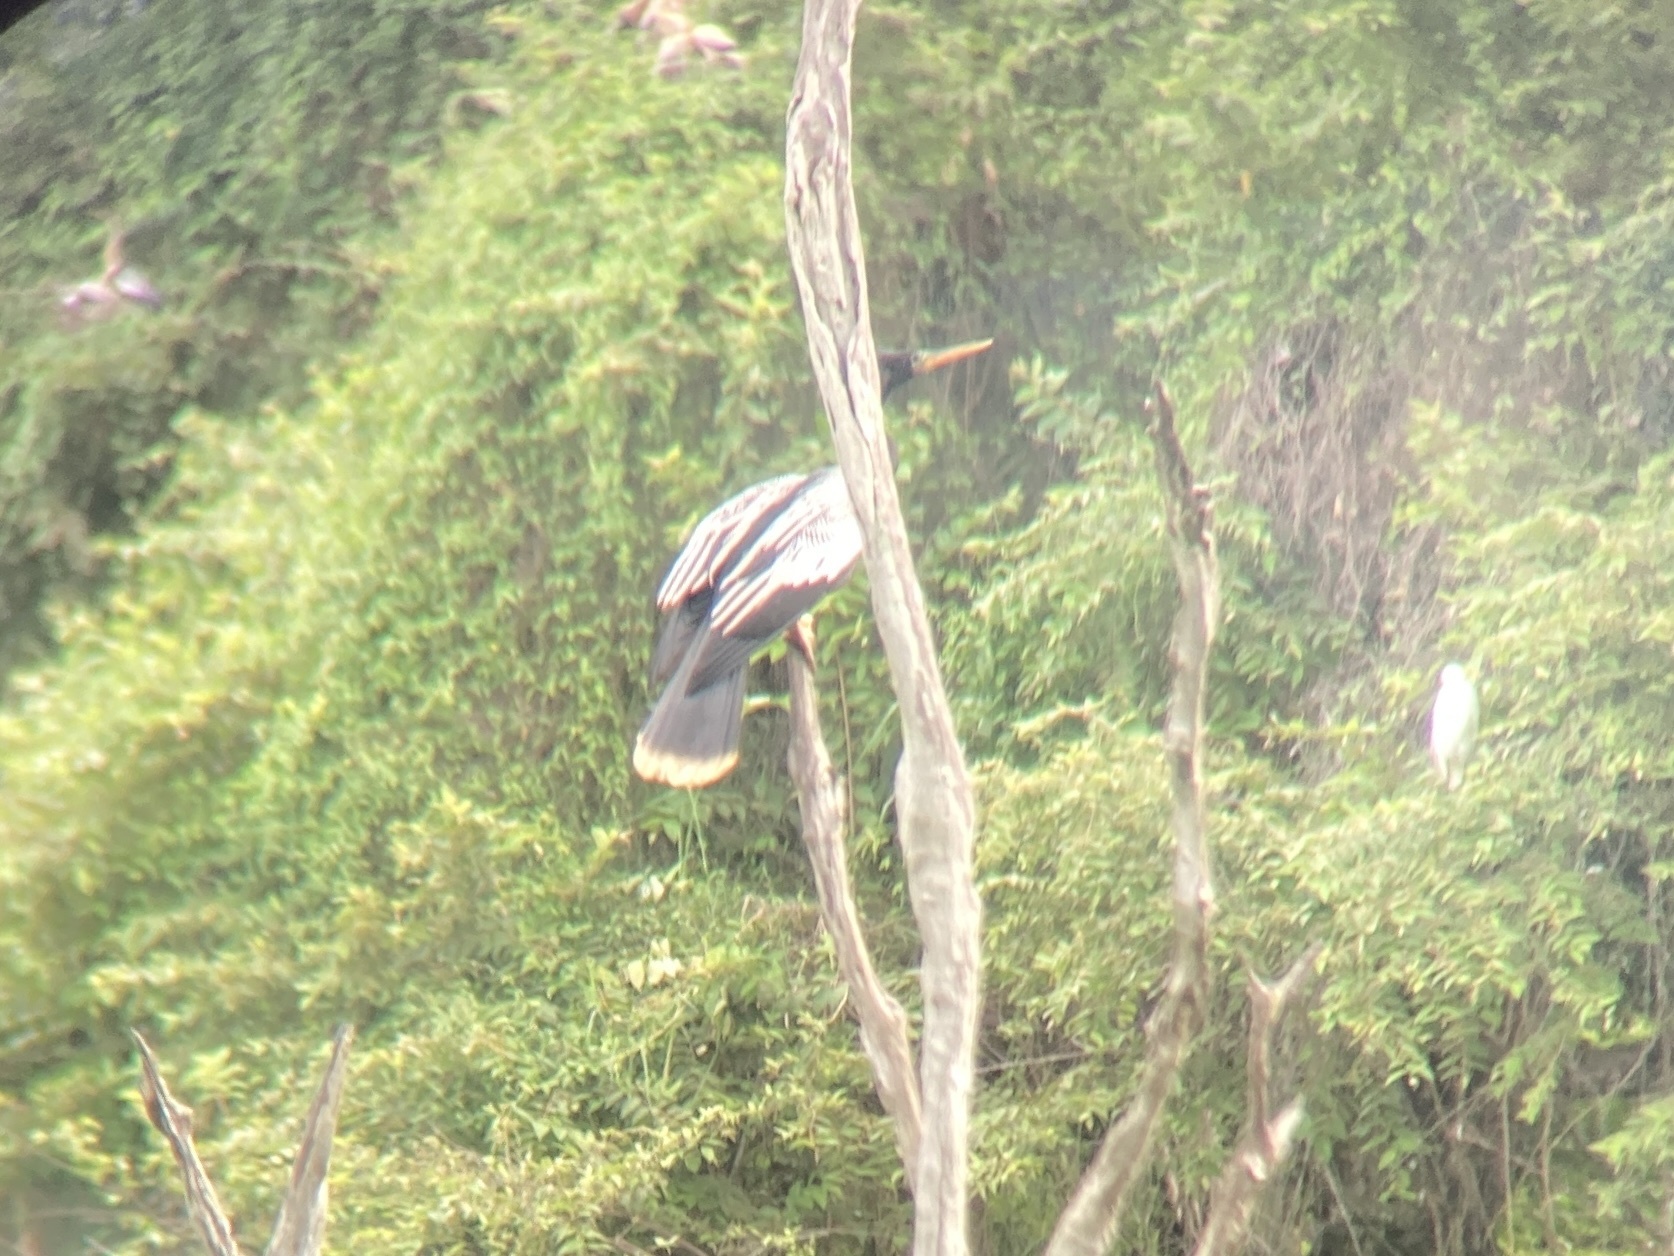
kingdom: Animalia
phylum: Chordata
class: Aves
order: Suliformes
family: Anhingidae
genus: Anhinga
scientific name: Anhinga anhinga
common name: Anhinga
